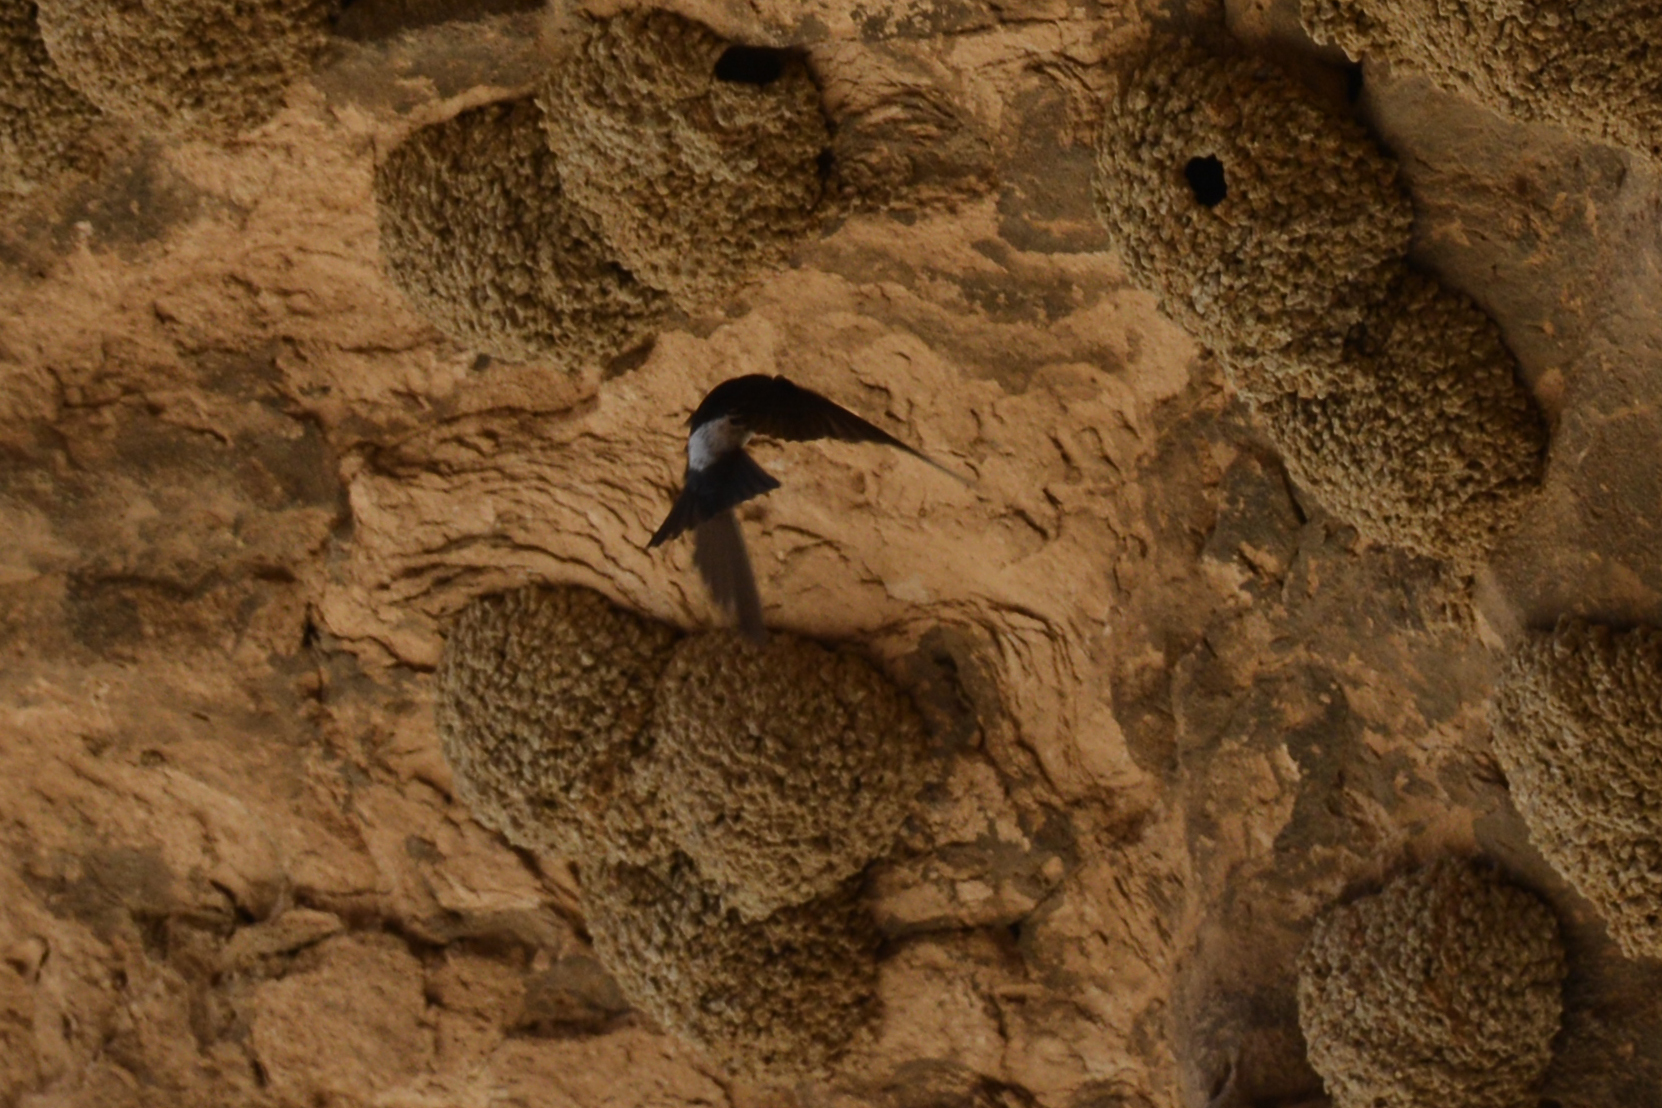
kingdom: Animalia
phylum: Chordata
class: Aves
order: Passeriformes
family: Hirundinidae
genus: Delichon
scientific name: Delichon urbicum
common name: Common house martin
